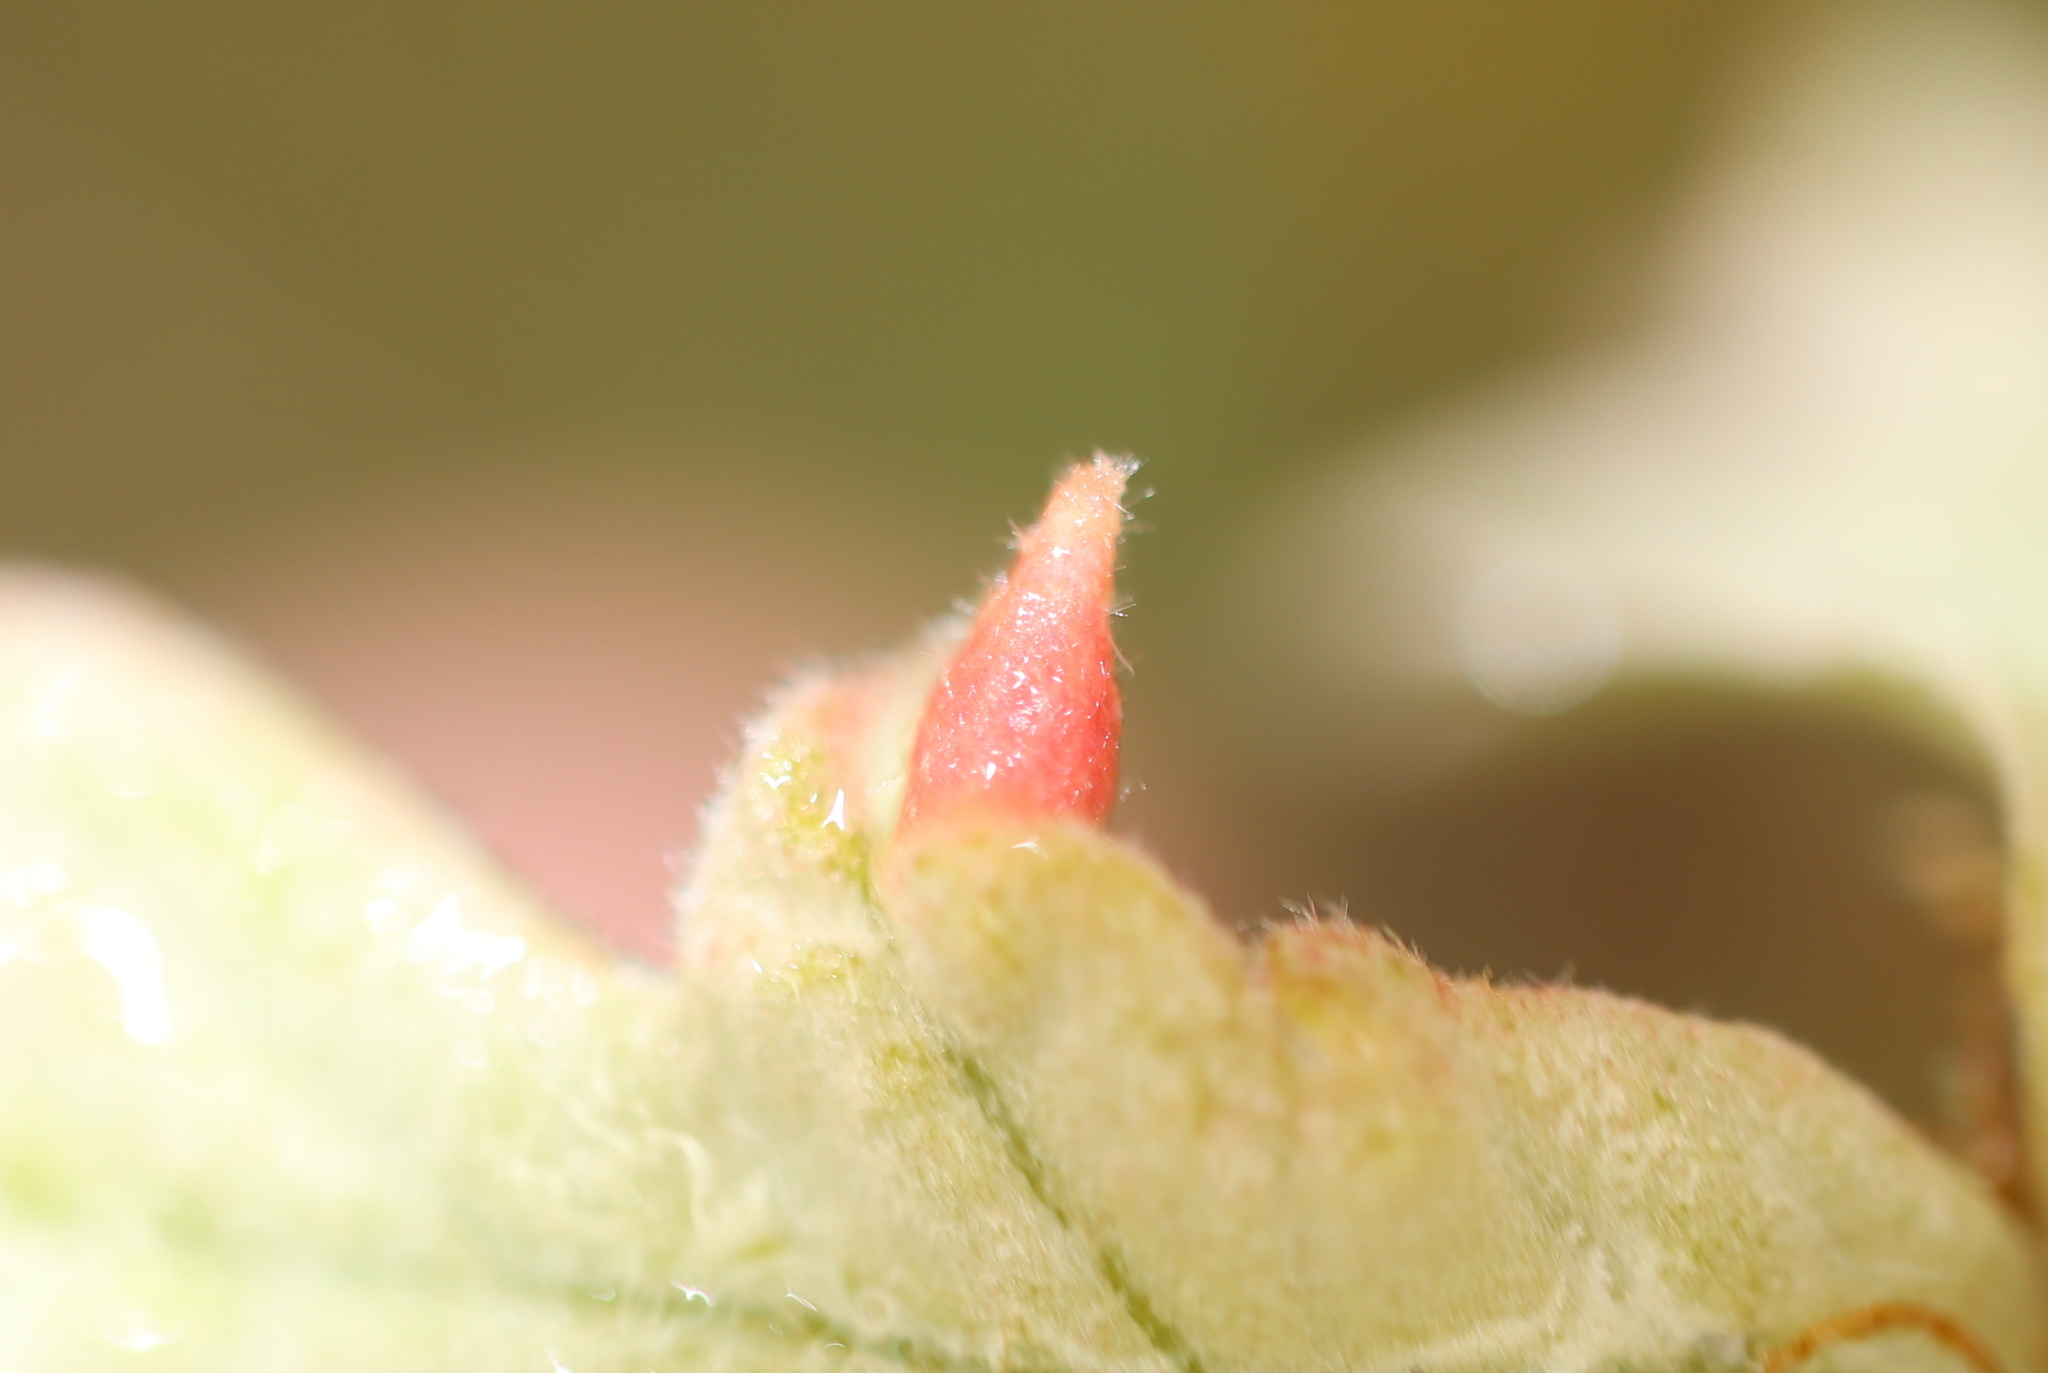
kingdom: Animalia
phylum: Arthropoda
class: Insecta
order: Hymenoptera
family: Cynipidae
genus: Andricus
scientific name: Andricus
